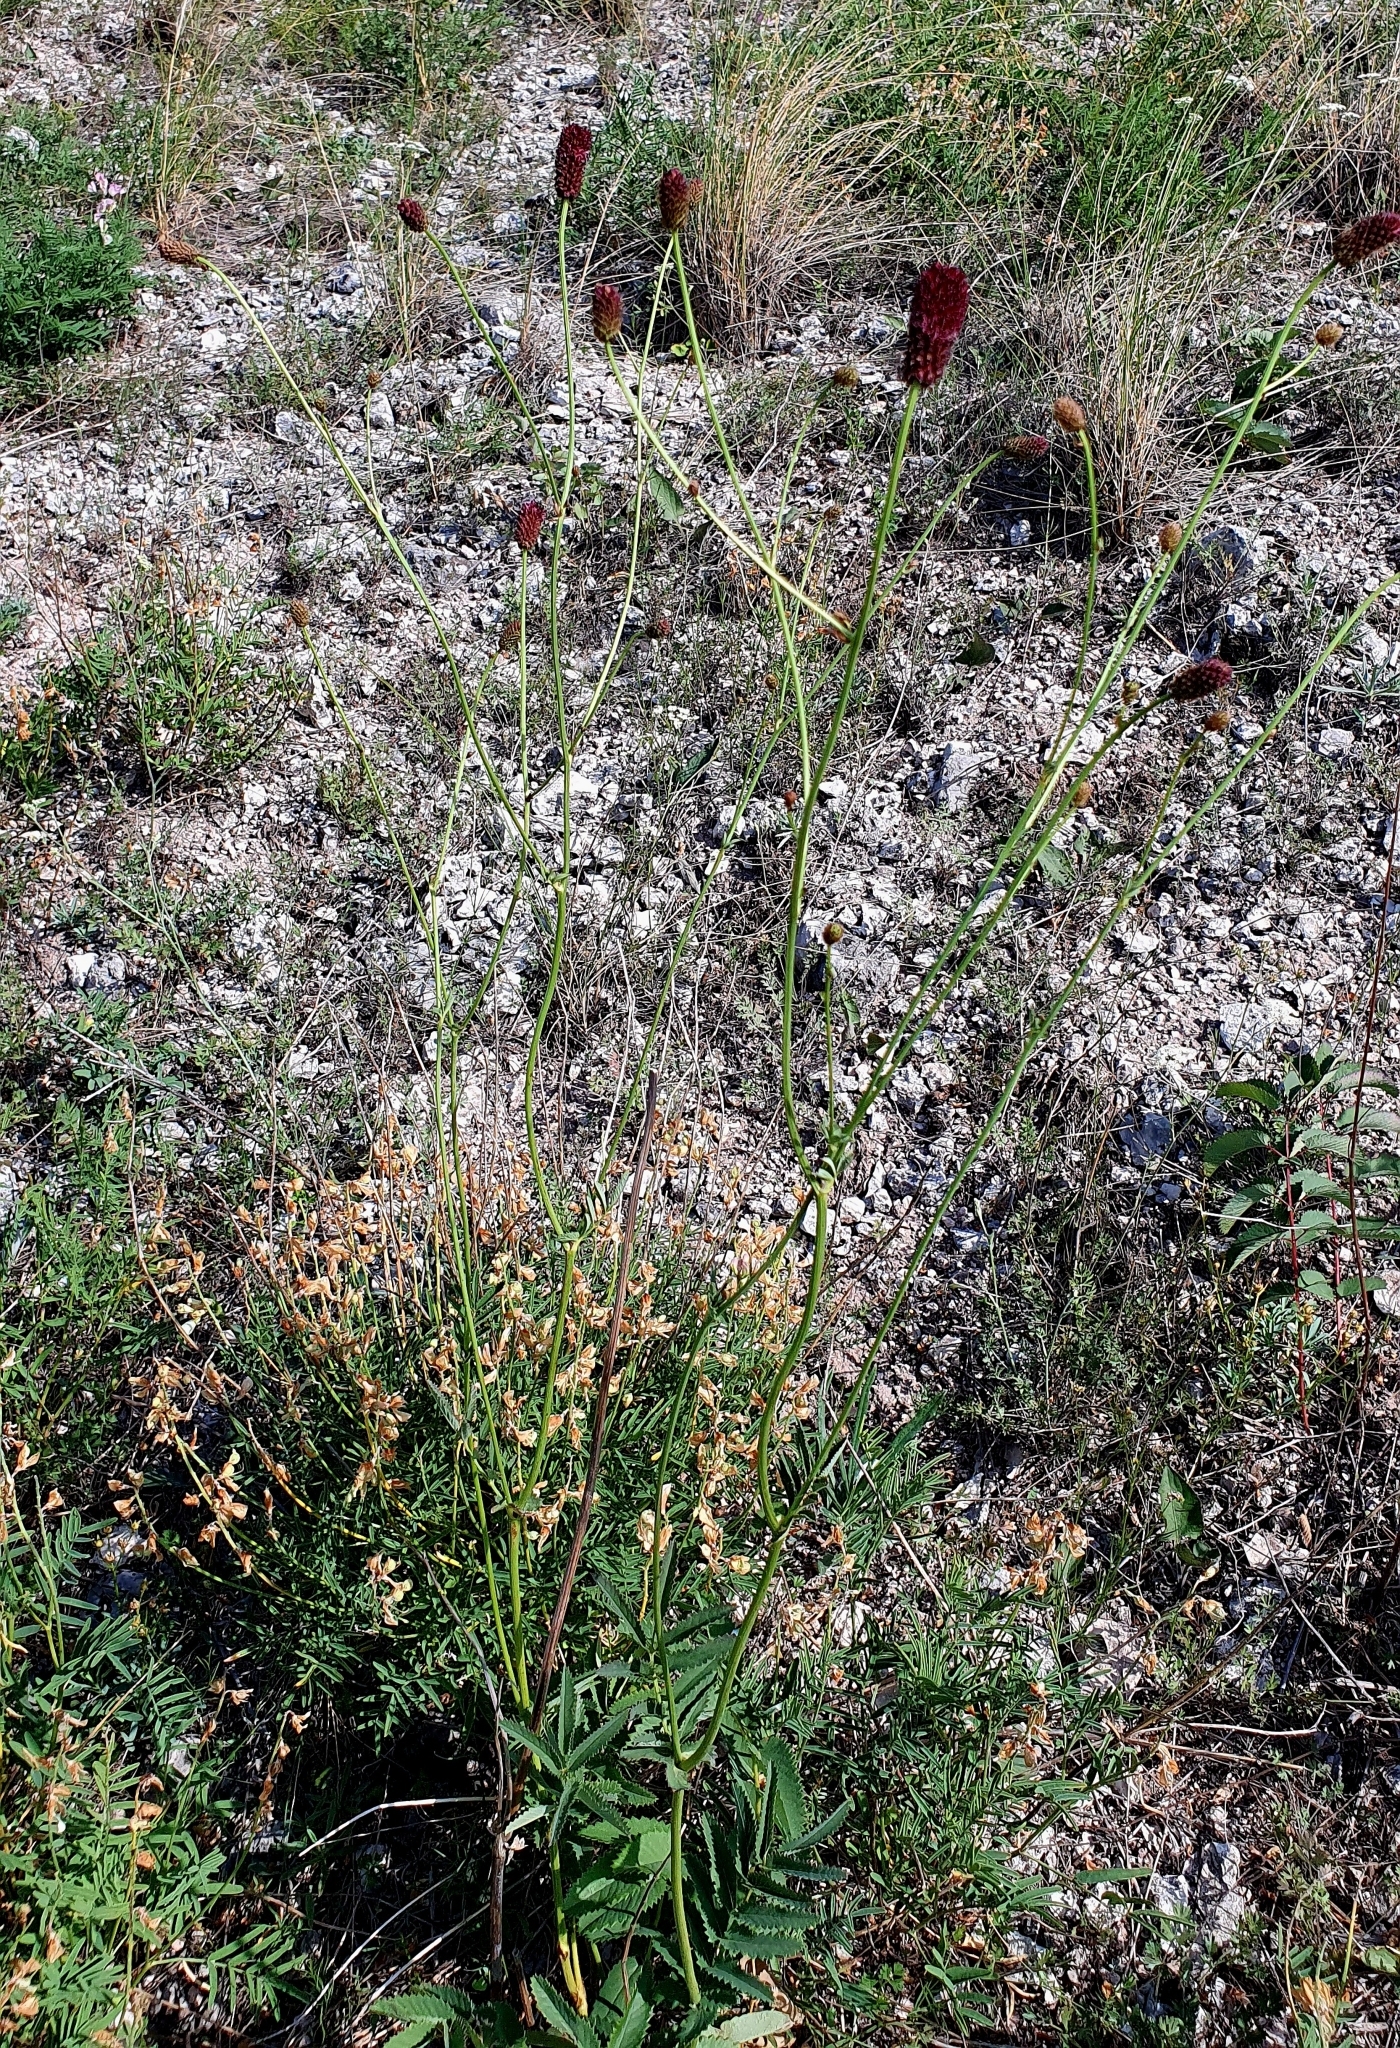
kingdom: Plantae
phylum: Tracheophyta
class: Magnoliopsida
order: Rosales
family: Rosaceae
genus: Sanguisorba
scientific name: Sanguisorba officinalis
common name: Great burnet
